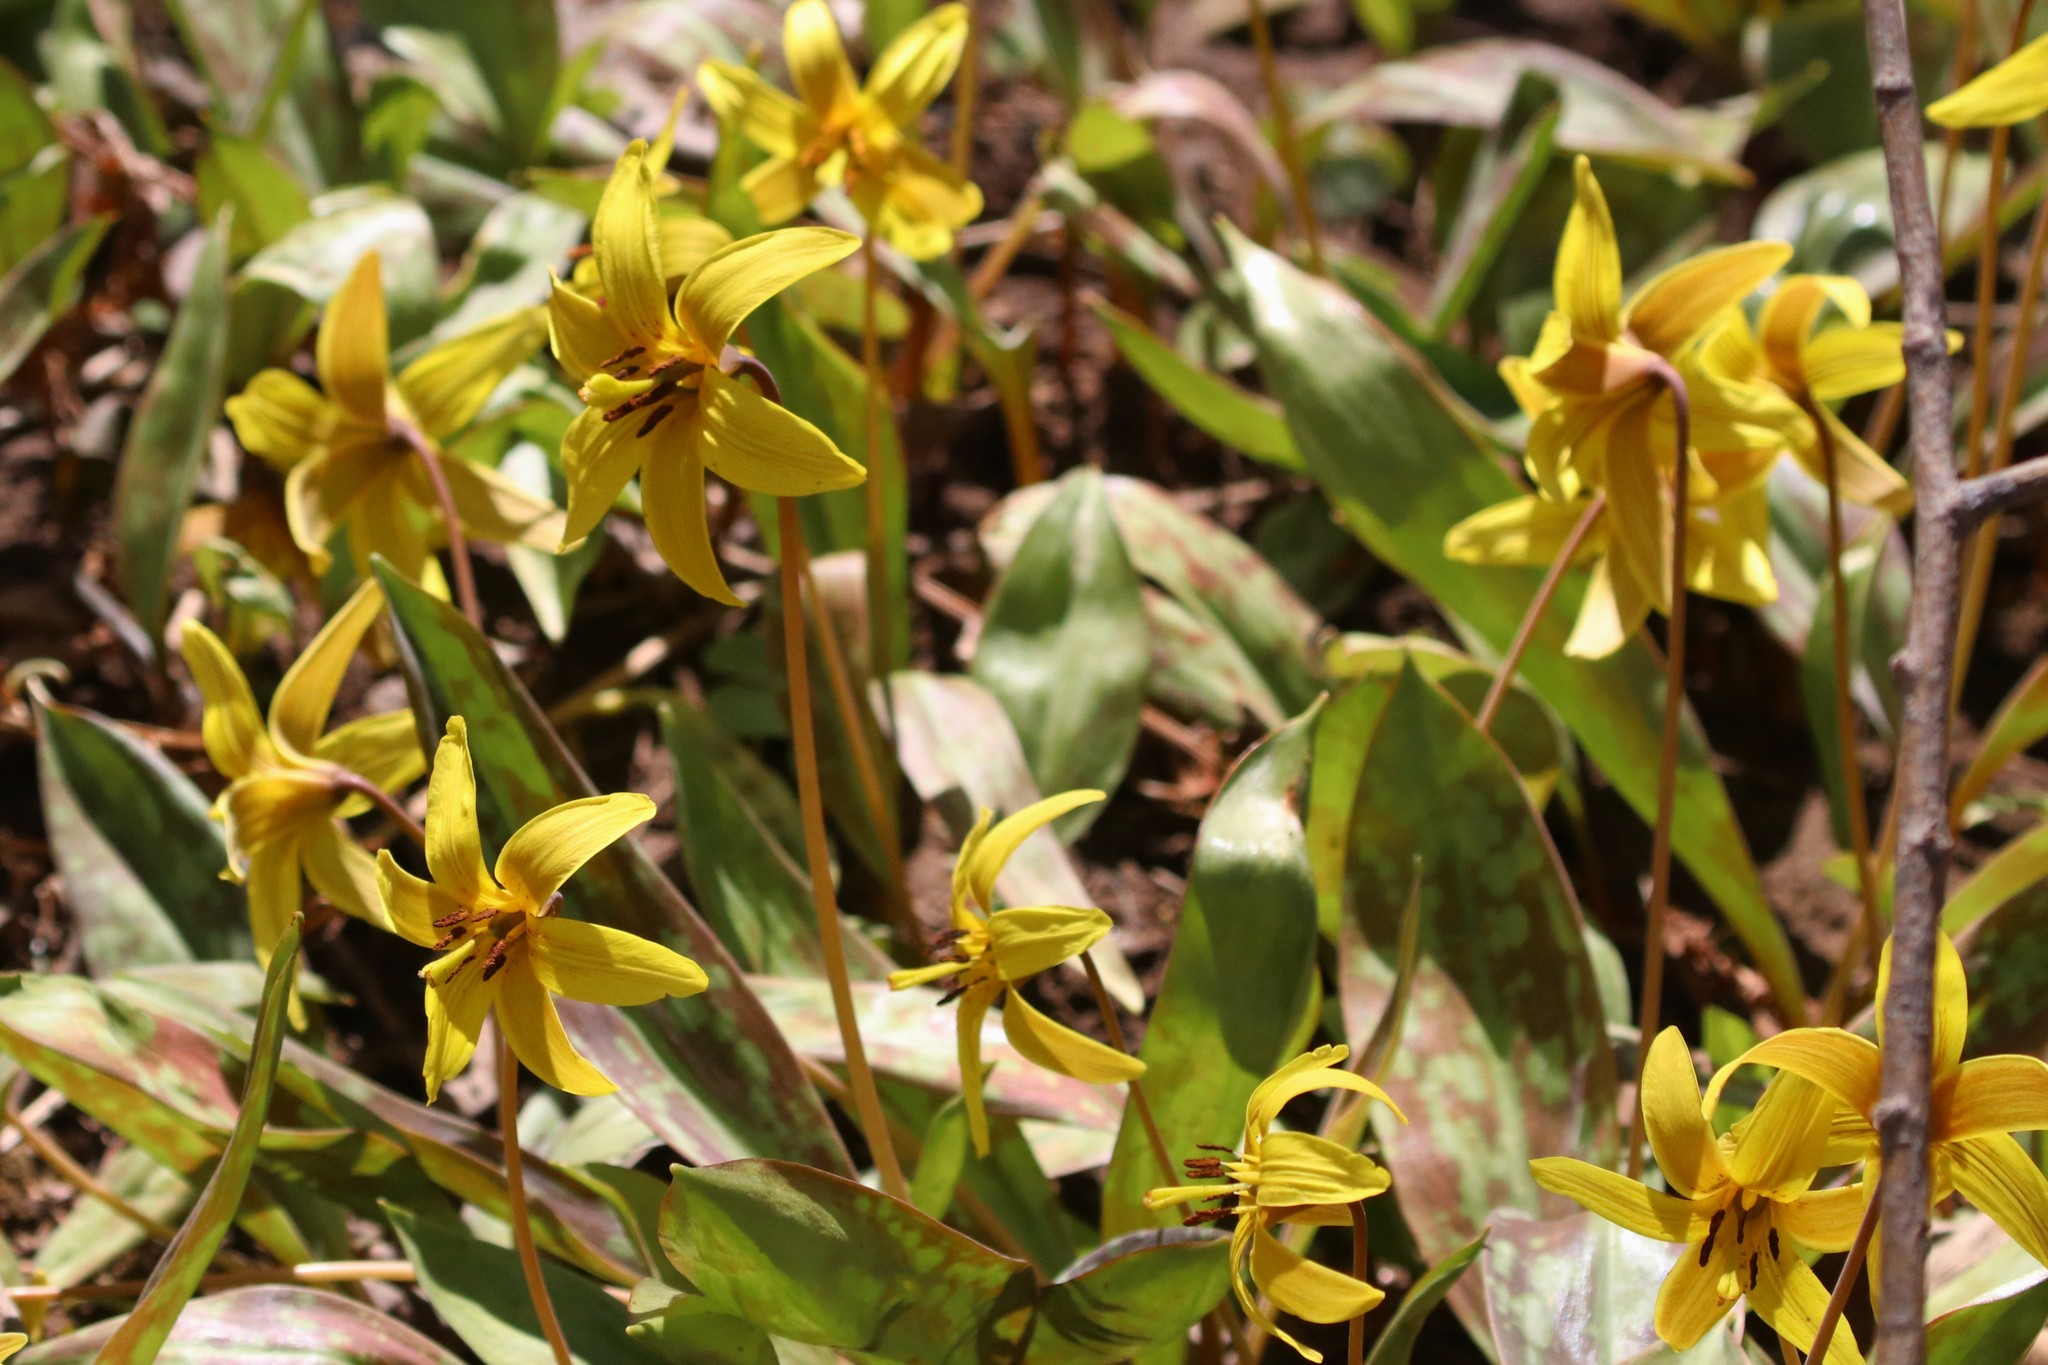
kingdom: Plantae
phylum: Tracheophyta
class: Liliopsida
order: Liliales
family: Liliaceae
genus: Erythronium
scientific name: Erythronium americanum
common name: Yellow adder's-tongue
